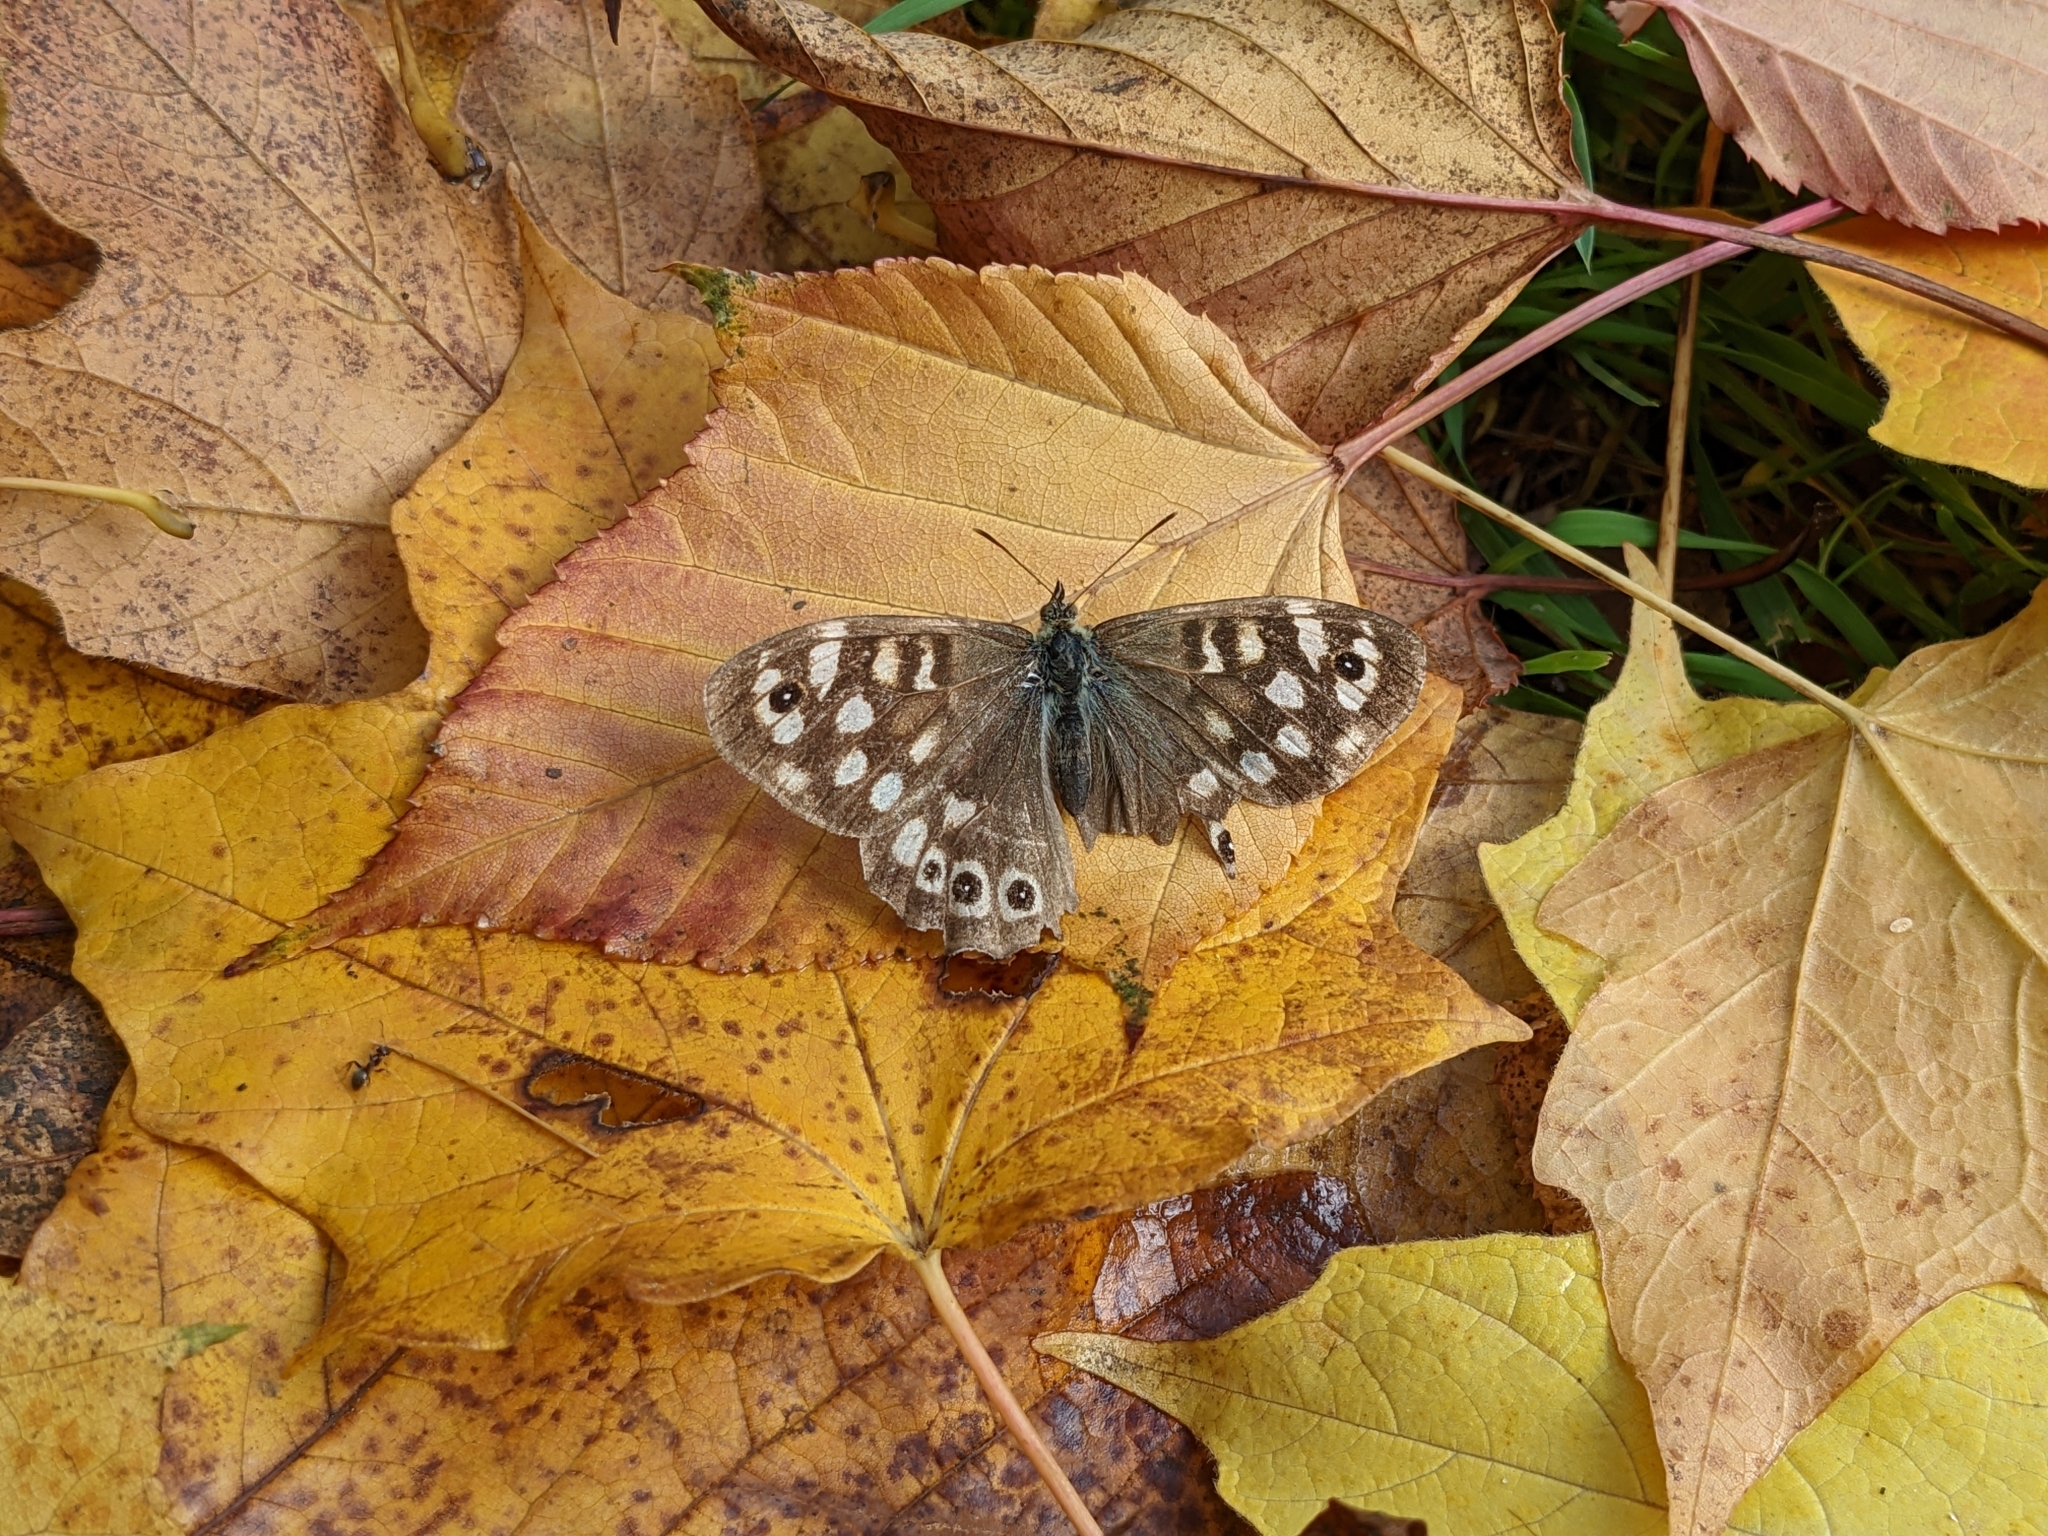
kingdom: Animalia
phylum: Arthropoda
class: Insecta
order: Lepidoptera
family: Nymphalidae
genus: Pararge
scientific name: Pararge aegeria
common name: Speckled wood
